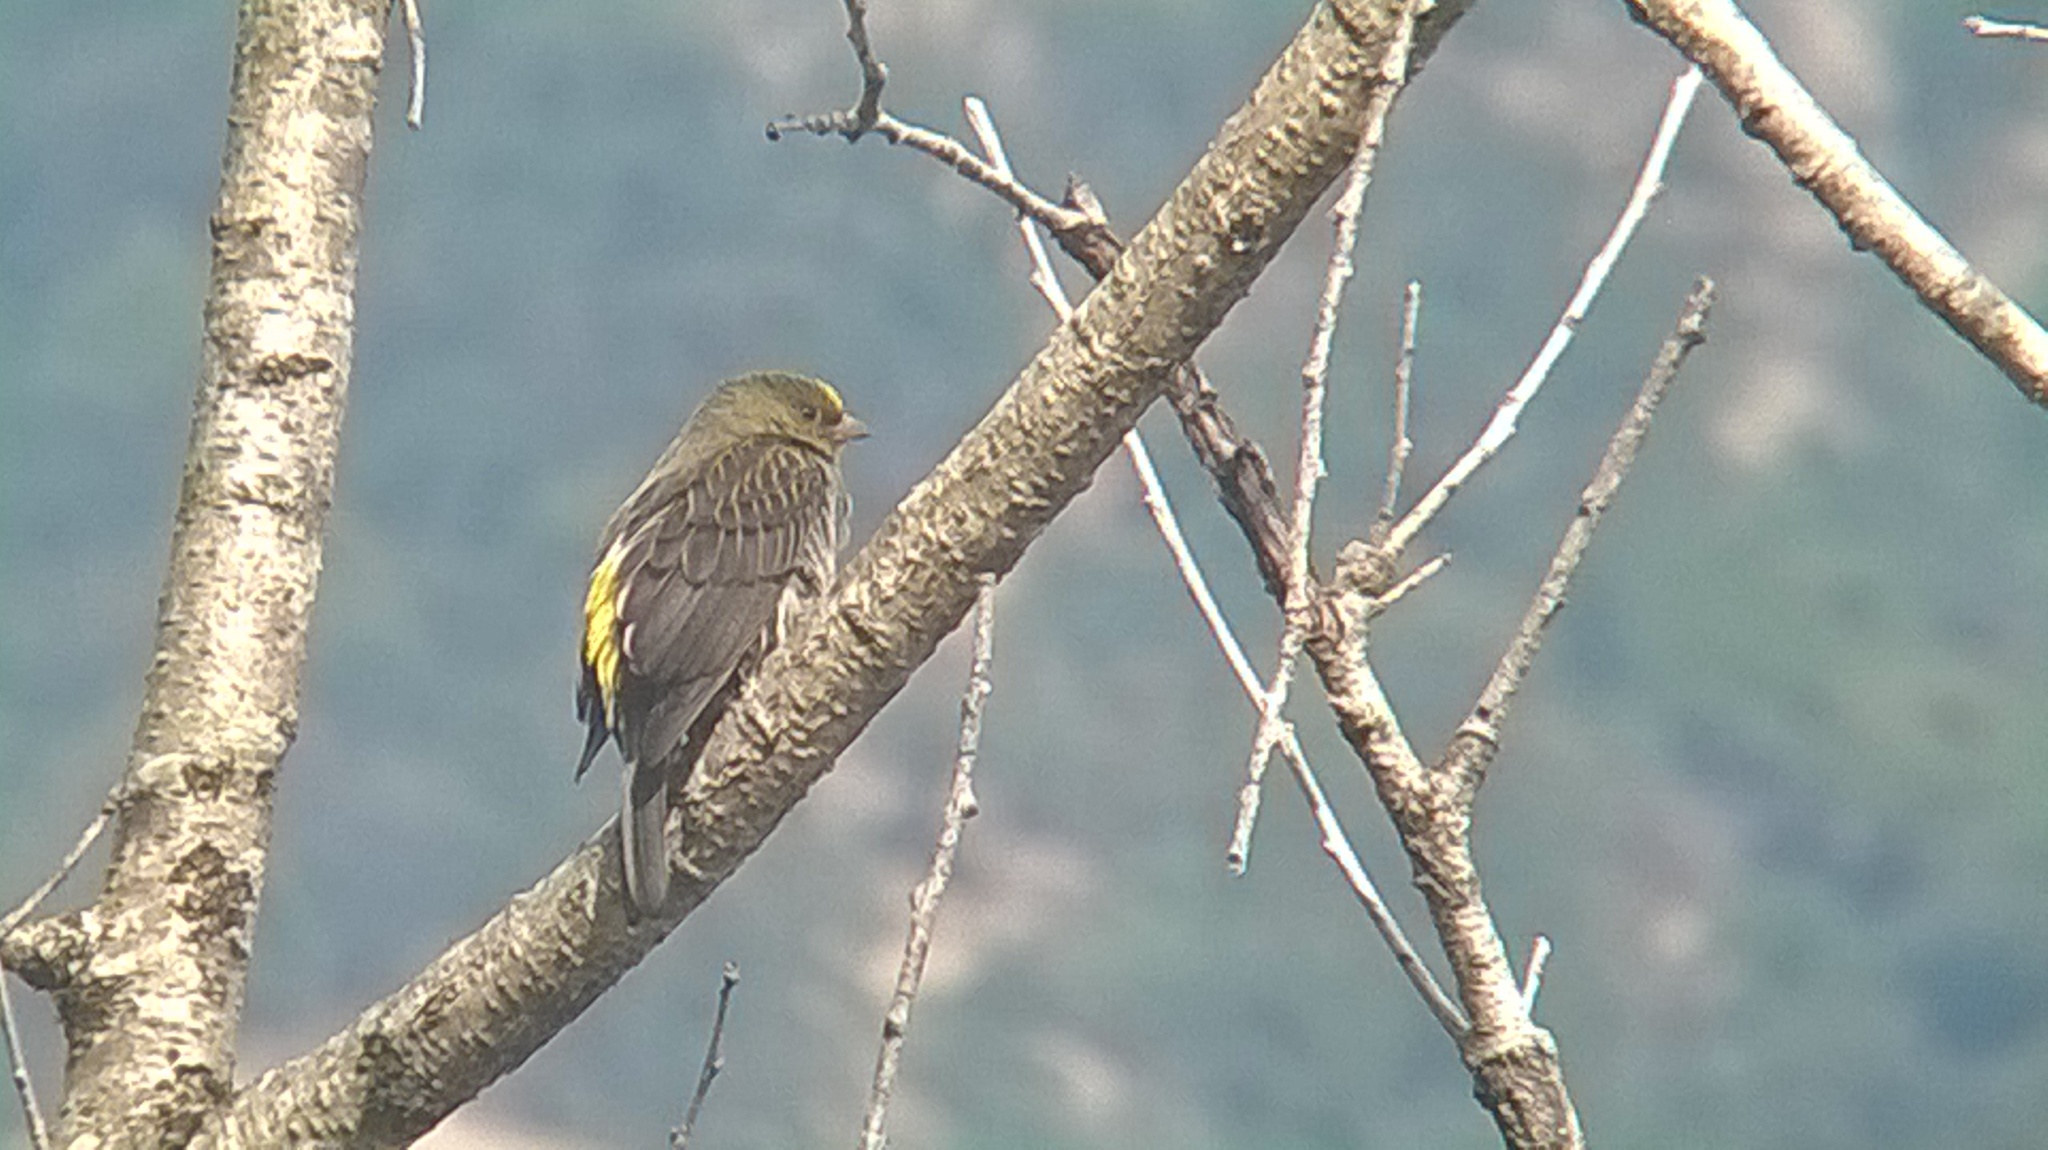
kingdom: Animalia
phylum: Chordata
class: Aves
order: Piciformes
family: Indicatoridae
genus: Indicator
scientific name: Indicator xanthonotus
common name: Yellow-rumped honeyguide
